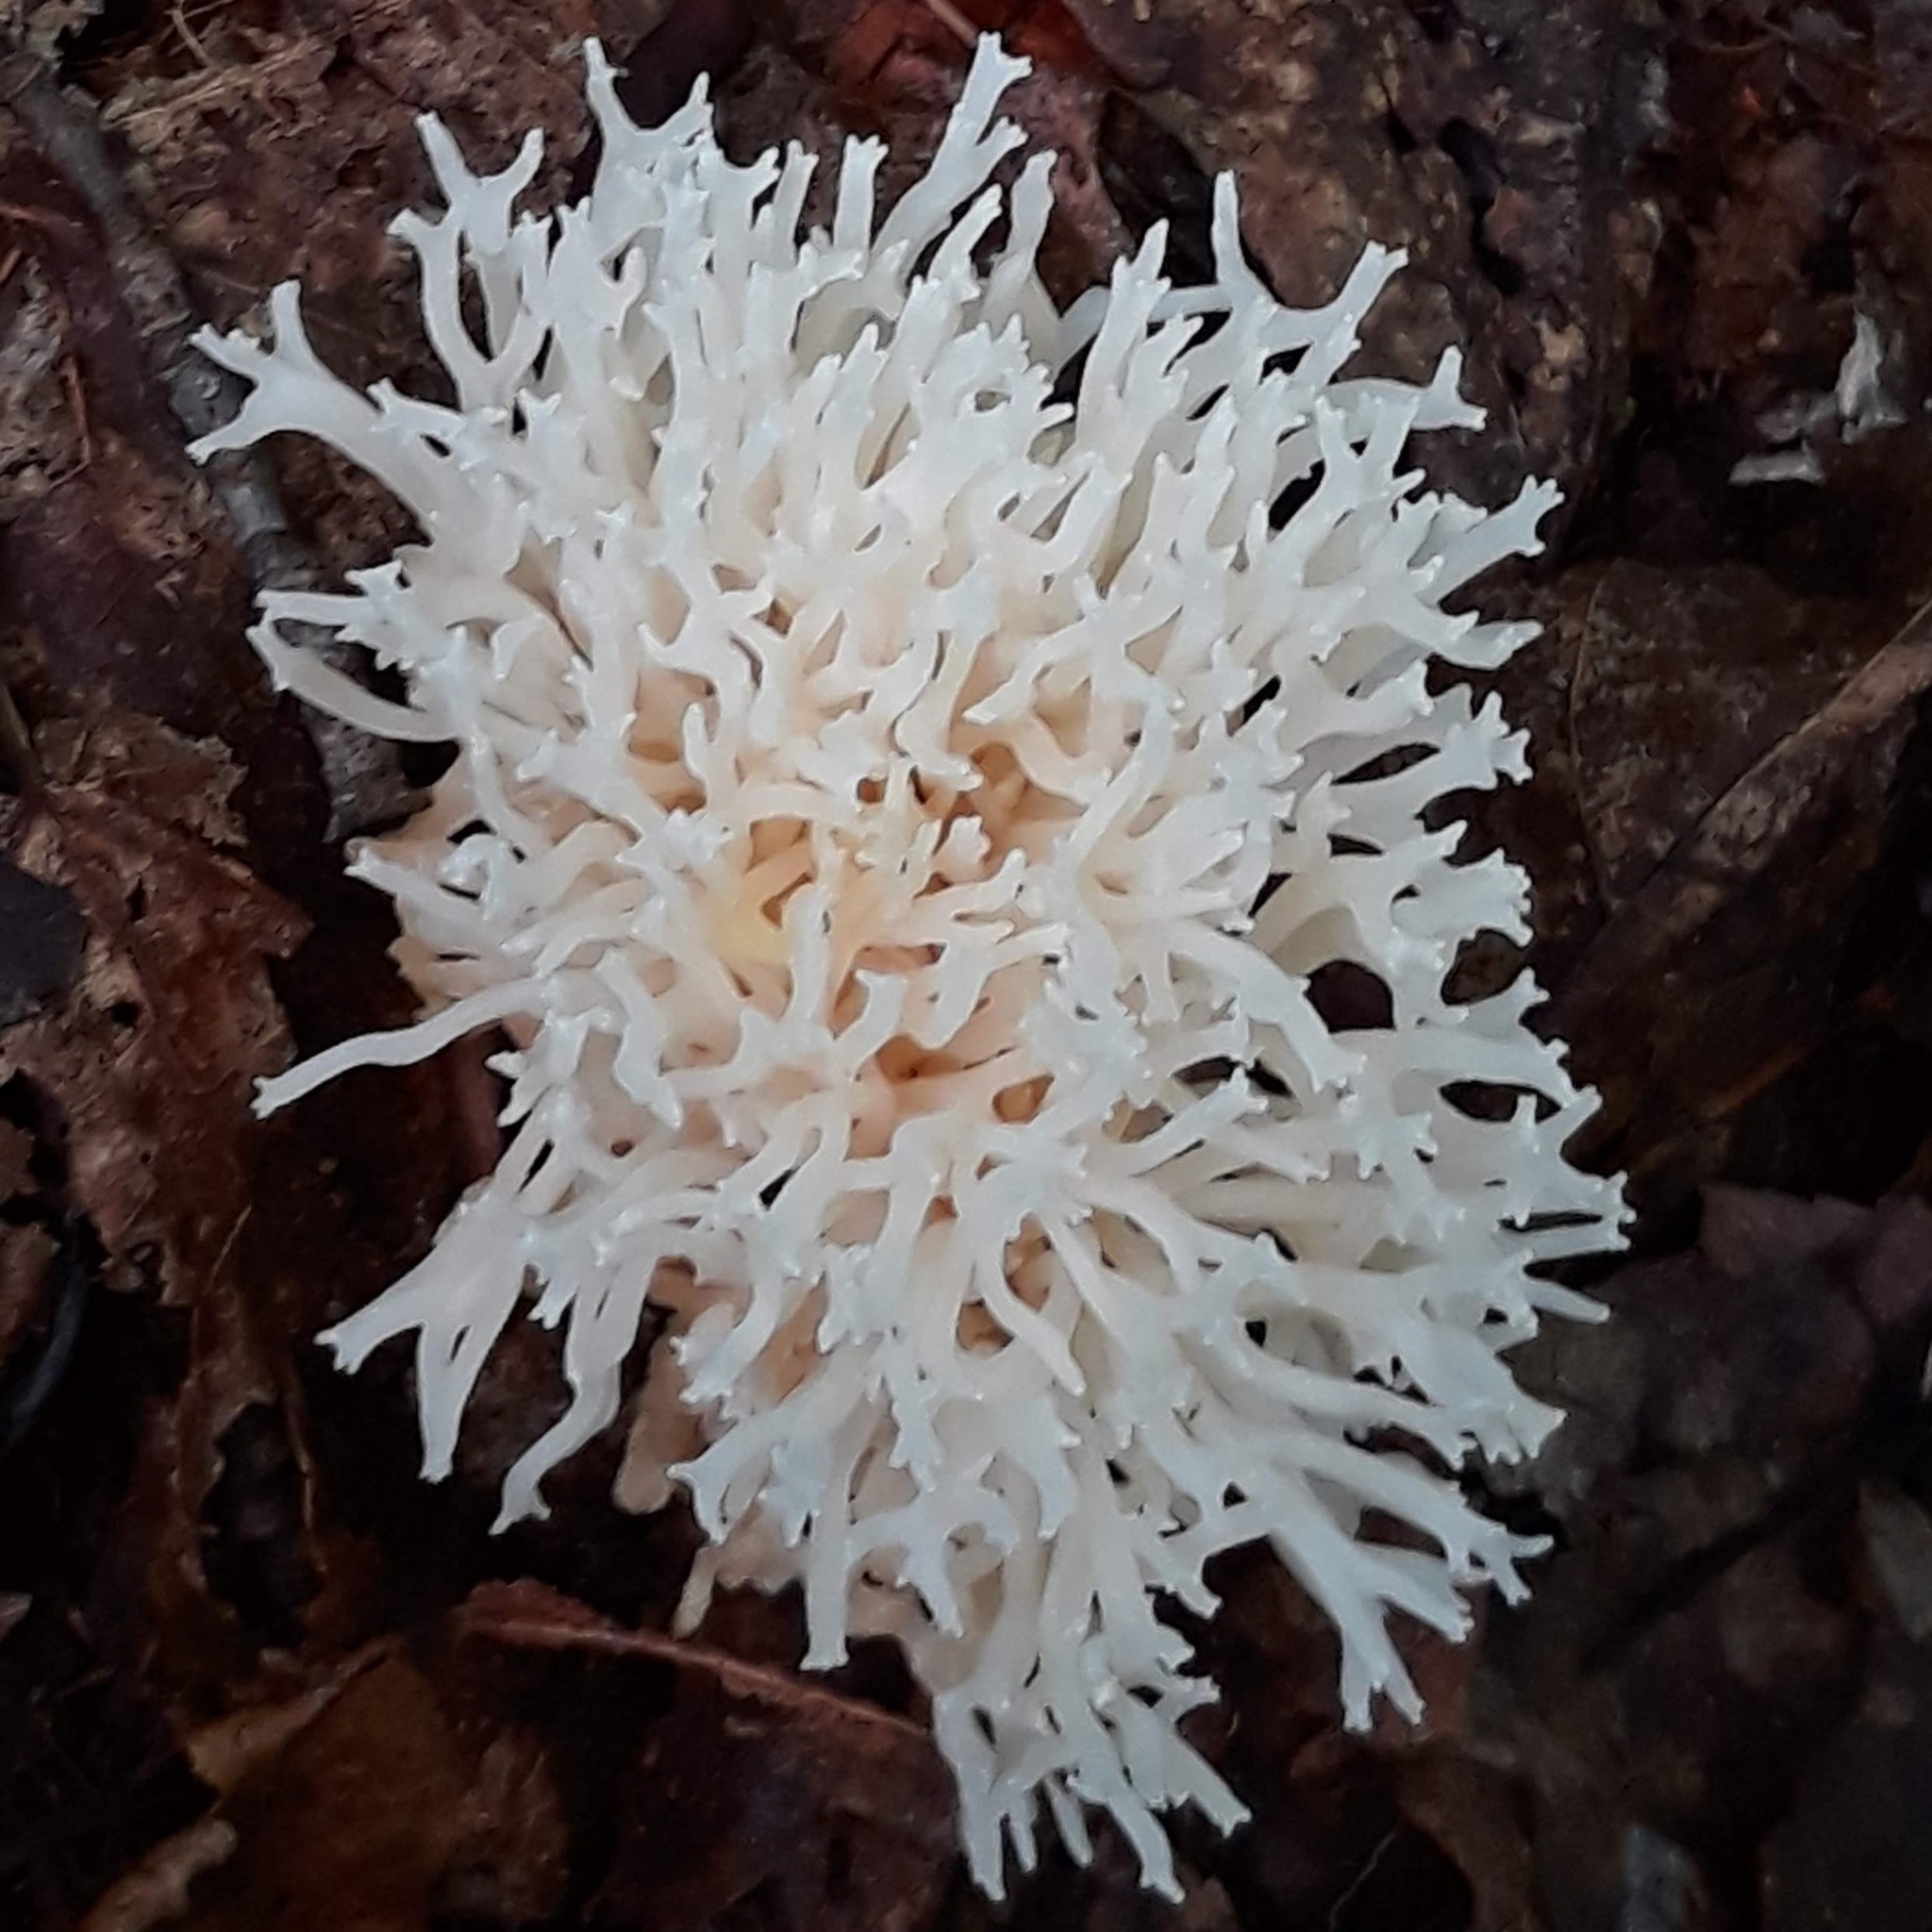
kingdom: Fungi
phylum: Basidiomycota
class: Agaricomycetes
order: Agaricales
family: Clavariaceae
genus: Ramariopsis
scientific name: Ramariopsis kunzei
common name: Ivory coral
